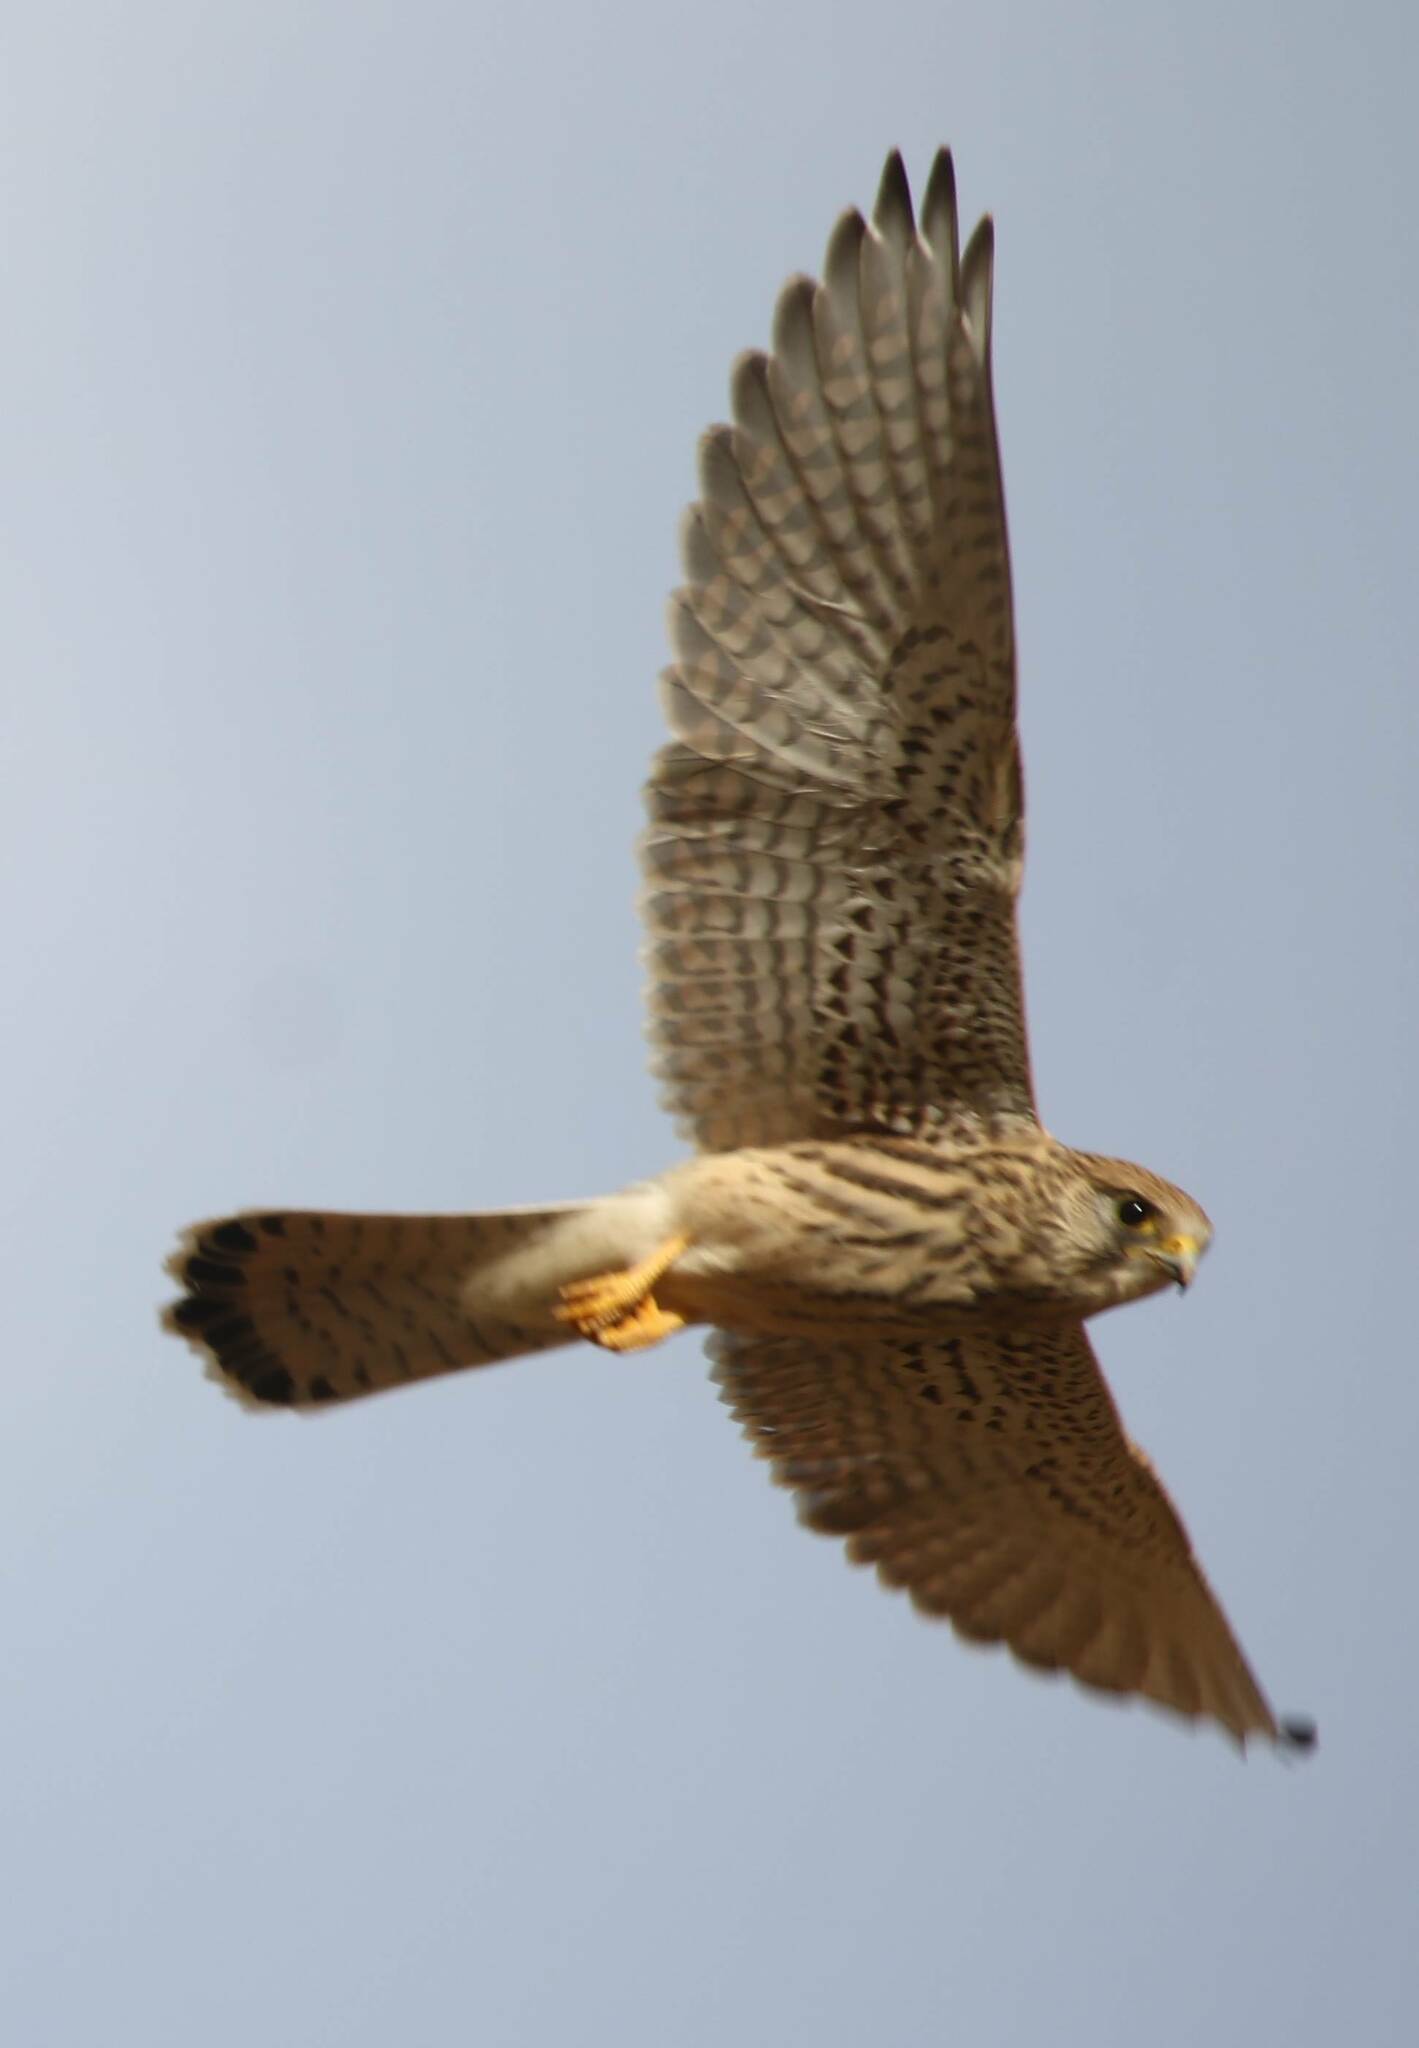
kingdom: Animalia
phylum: Chordata
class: Aves
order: Falconiformes
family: Falconidae
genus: Falco
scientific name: Falco tinnunculus
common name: Common kestrel
